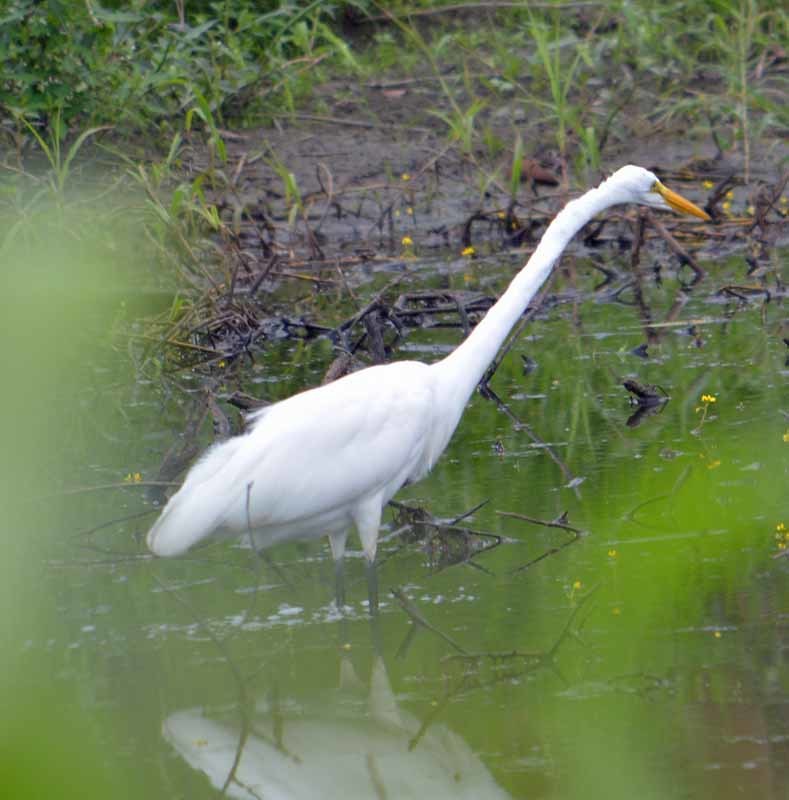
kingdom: Animalia
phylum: Chordata
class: Aves
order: Pelecaniformes
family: Ardeidae
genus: Ardea
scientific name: Ardea alba
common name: Great egret
